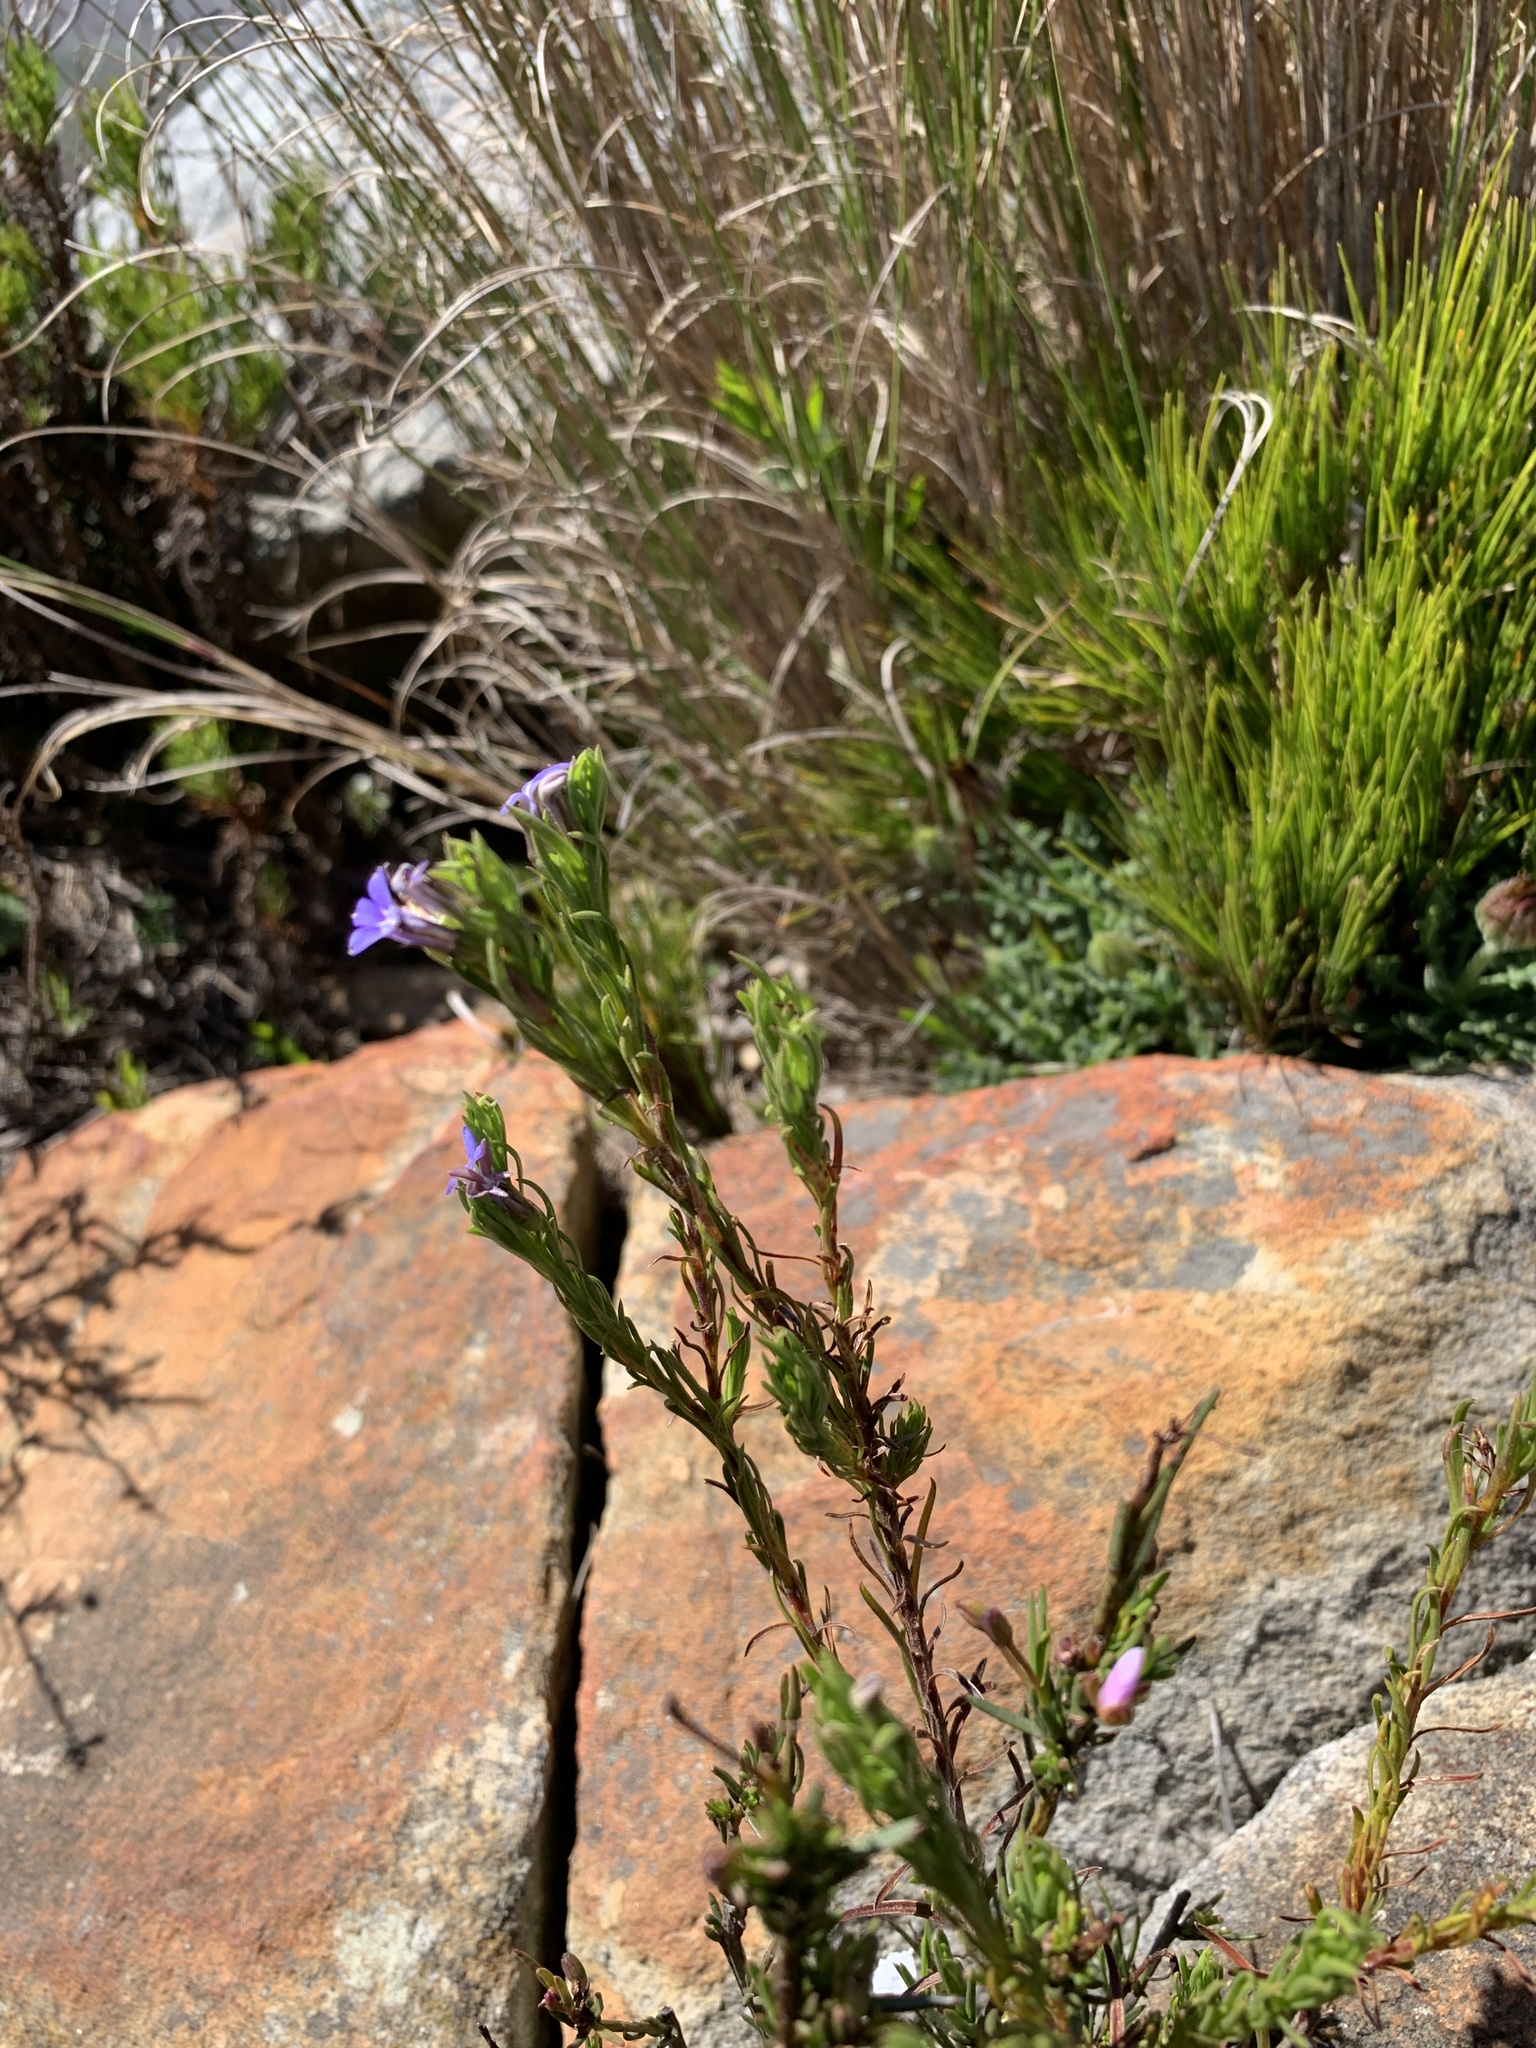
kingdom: Plantae
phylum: Tracheophyta
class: Magnoliopsida
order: Asterales
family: Campanulaceae
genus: Lobelia
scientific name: Lobelia pinifolia
